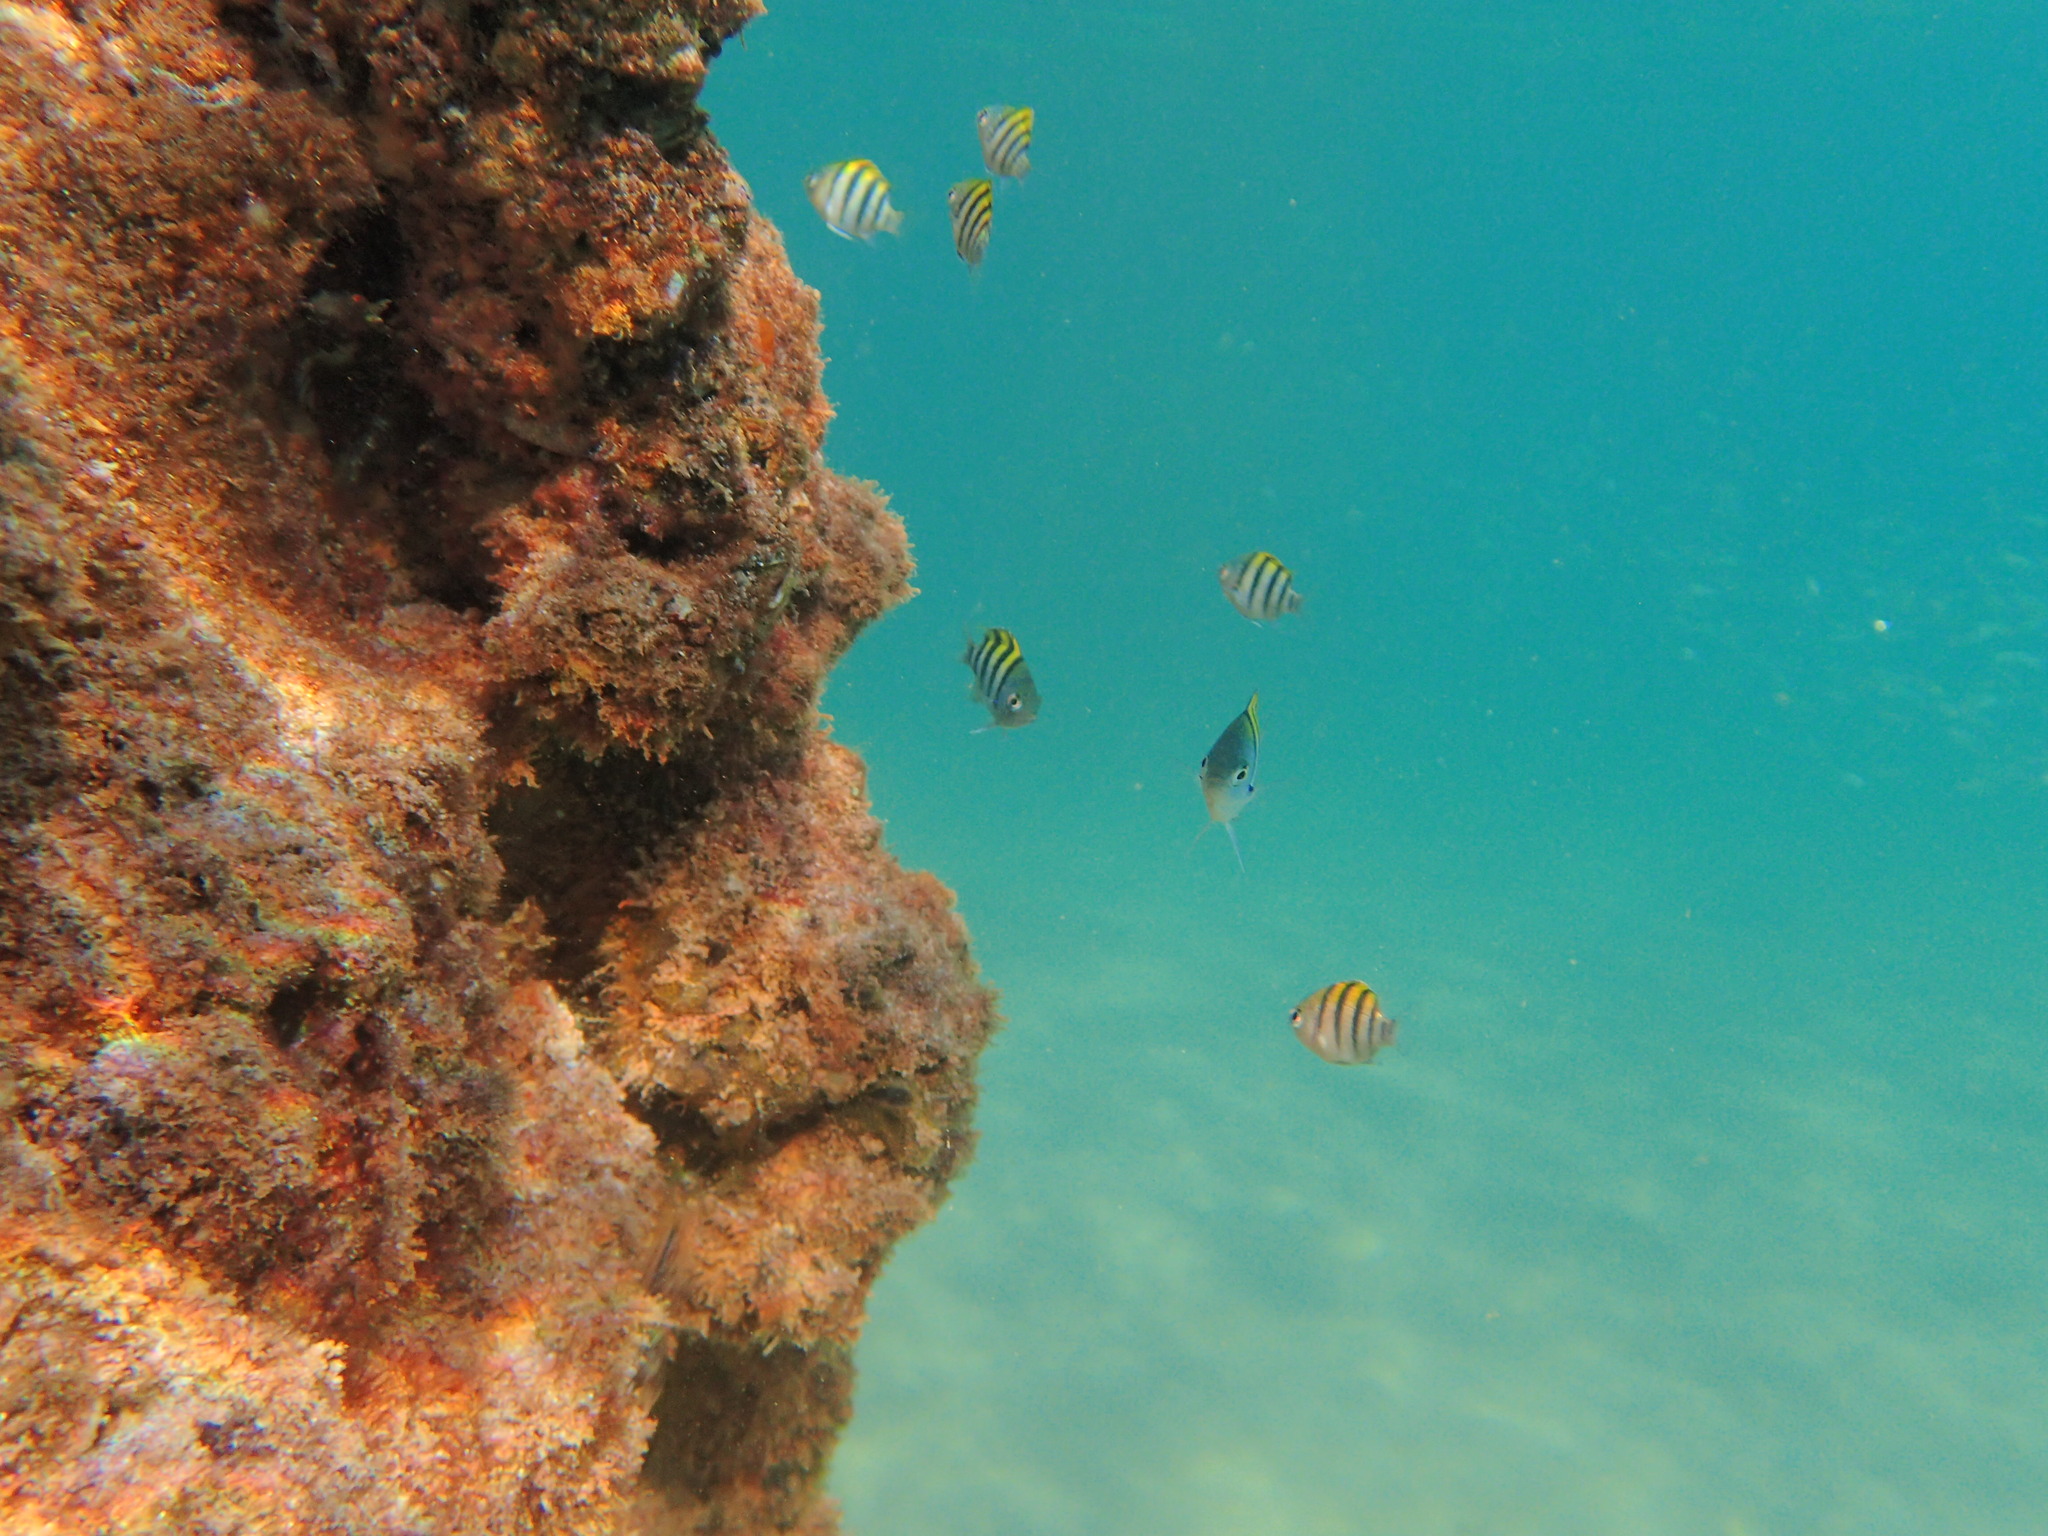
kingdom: Animalia
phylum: Chordata
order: Perciformes
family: Pomacentridae
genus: Abudefduf
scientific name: Abudefduf vaigiensis
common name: Indo-pacific sergeant
